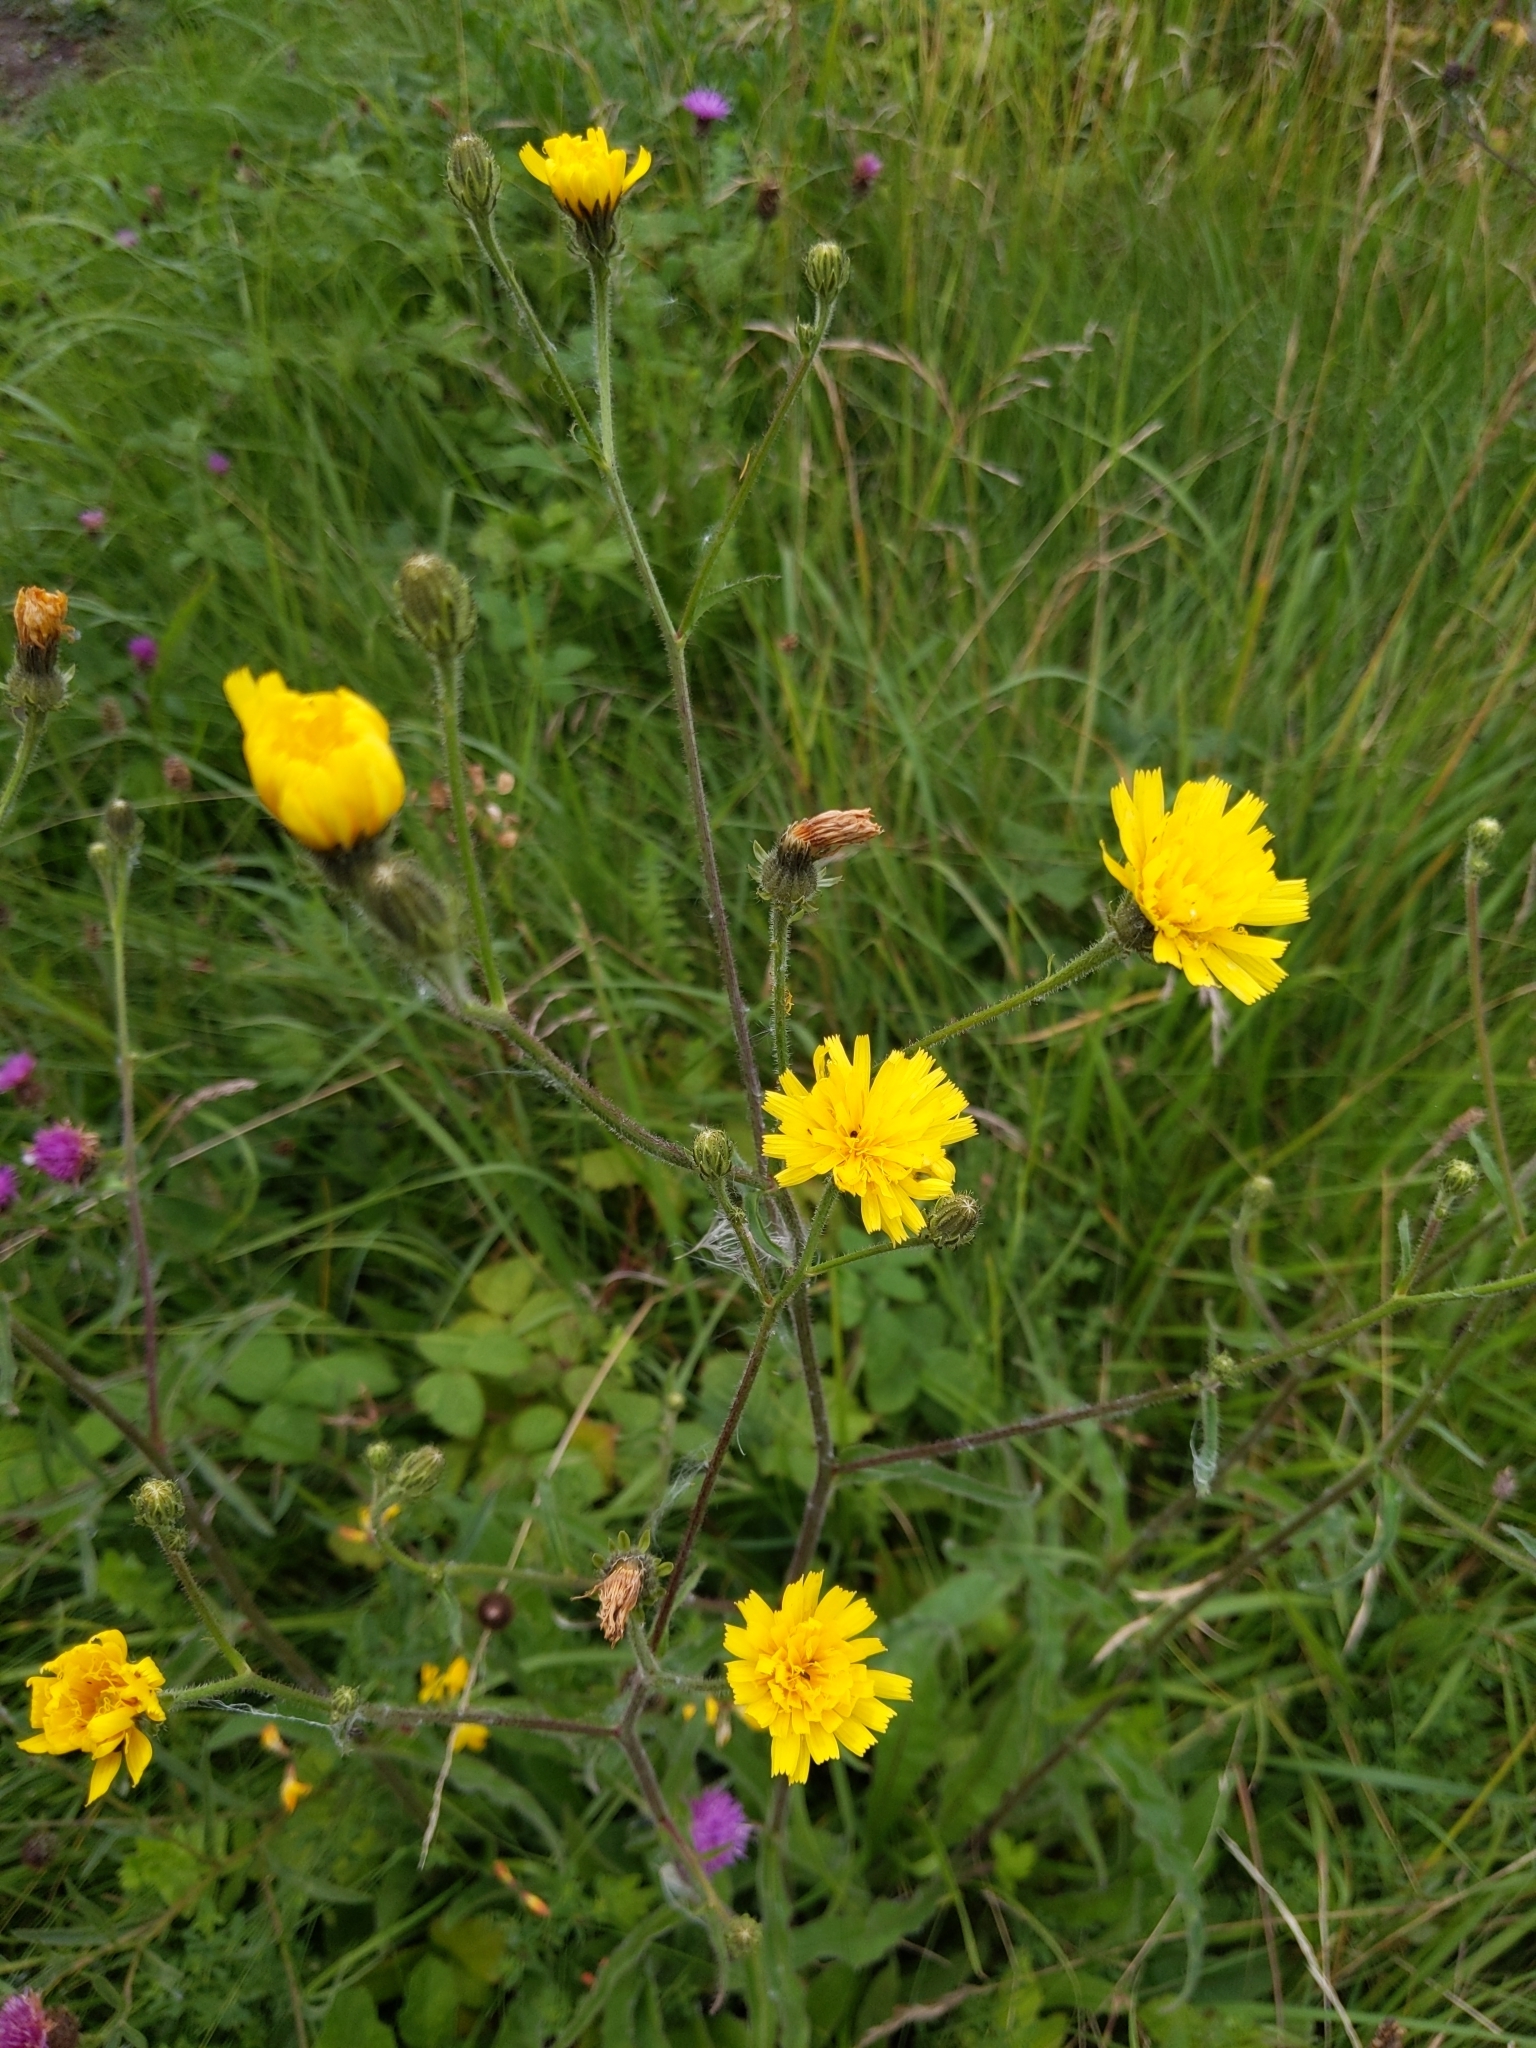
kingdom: Plantae
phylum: Tracheophyta
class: Magnoliopsida
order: Asterales
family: Asteraceae
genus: Picris
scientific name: Picris hieracioides
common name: Hawkweed oxtongue
